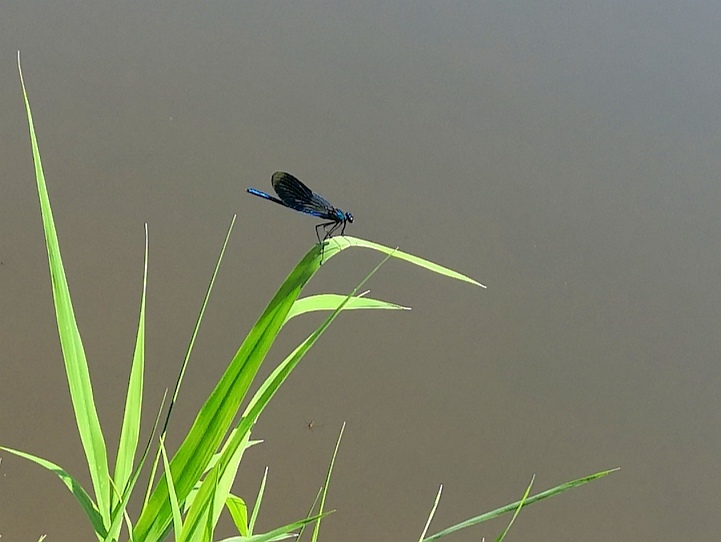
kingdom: Animalia
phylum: Arthropoda
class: Insecta
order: Odonata
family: Calopterygidae
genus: Calopteryx
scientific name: Calopteryx splendens
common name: Banded demoiselle
